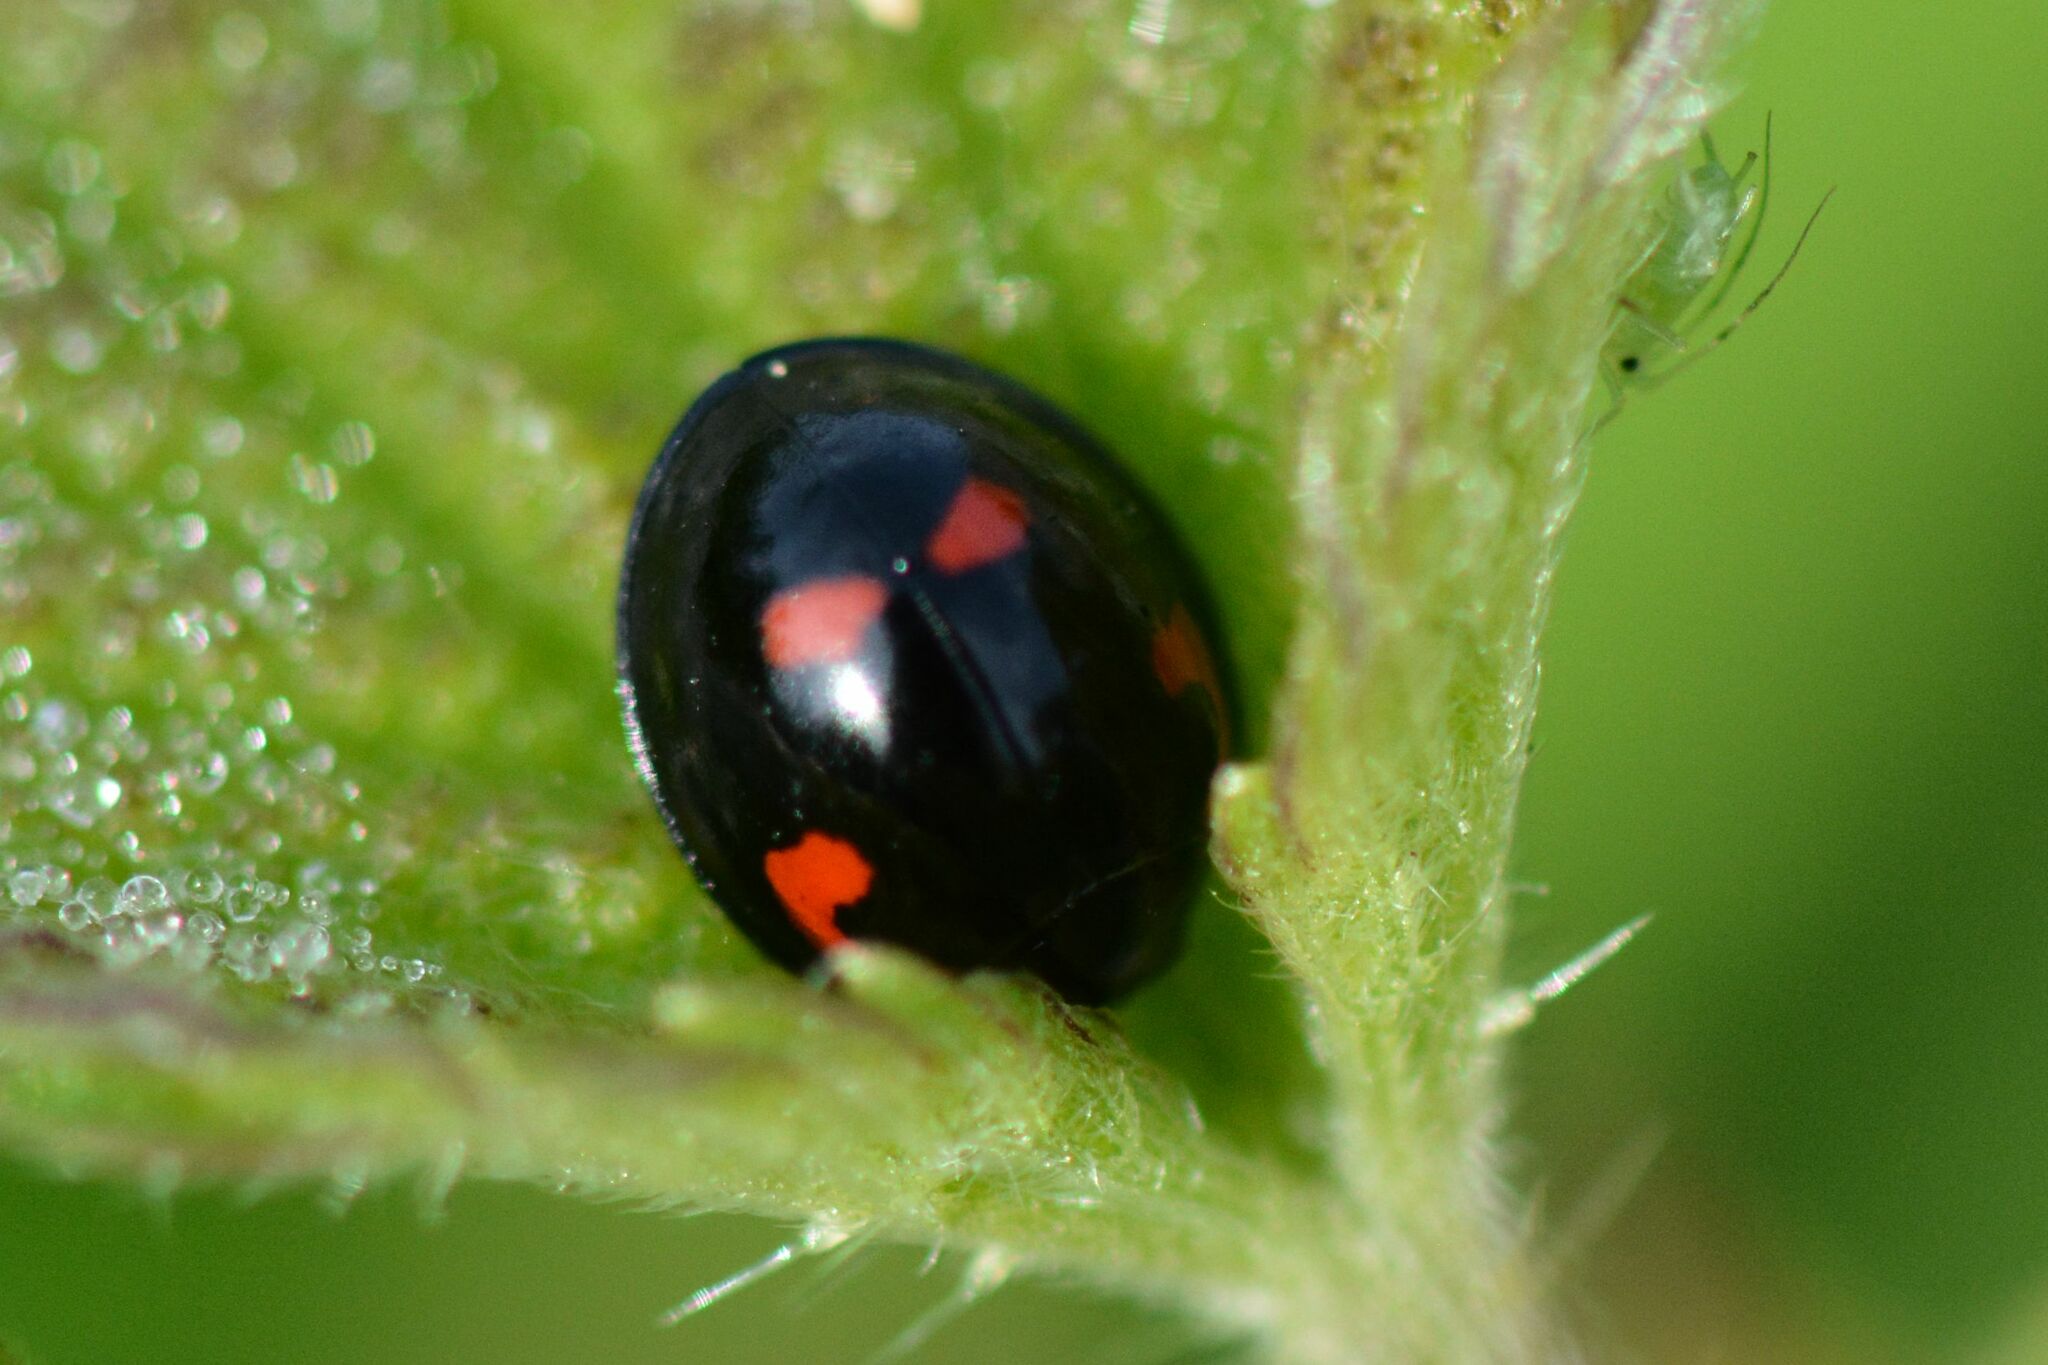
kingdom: Animalia
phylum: Arthropoda
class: Insecta
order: Coleoptera
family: Coccinellidae
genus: Brumus
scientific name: Brumus quadripustulatus
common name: Ladybird beetle
